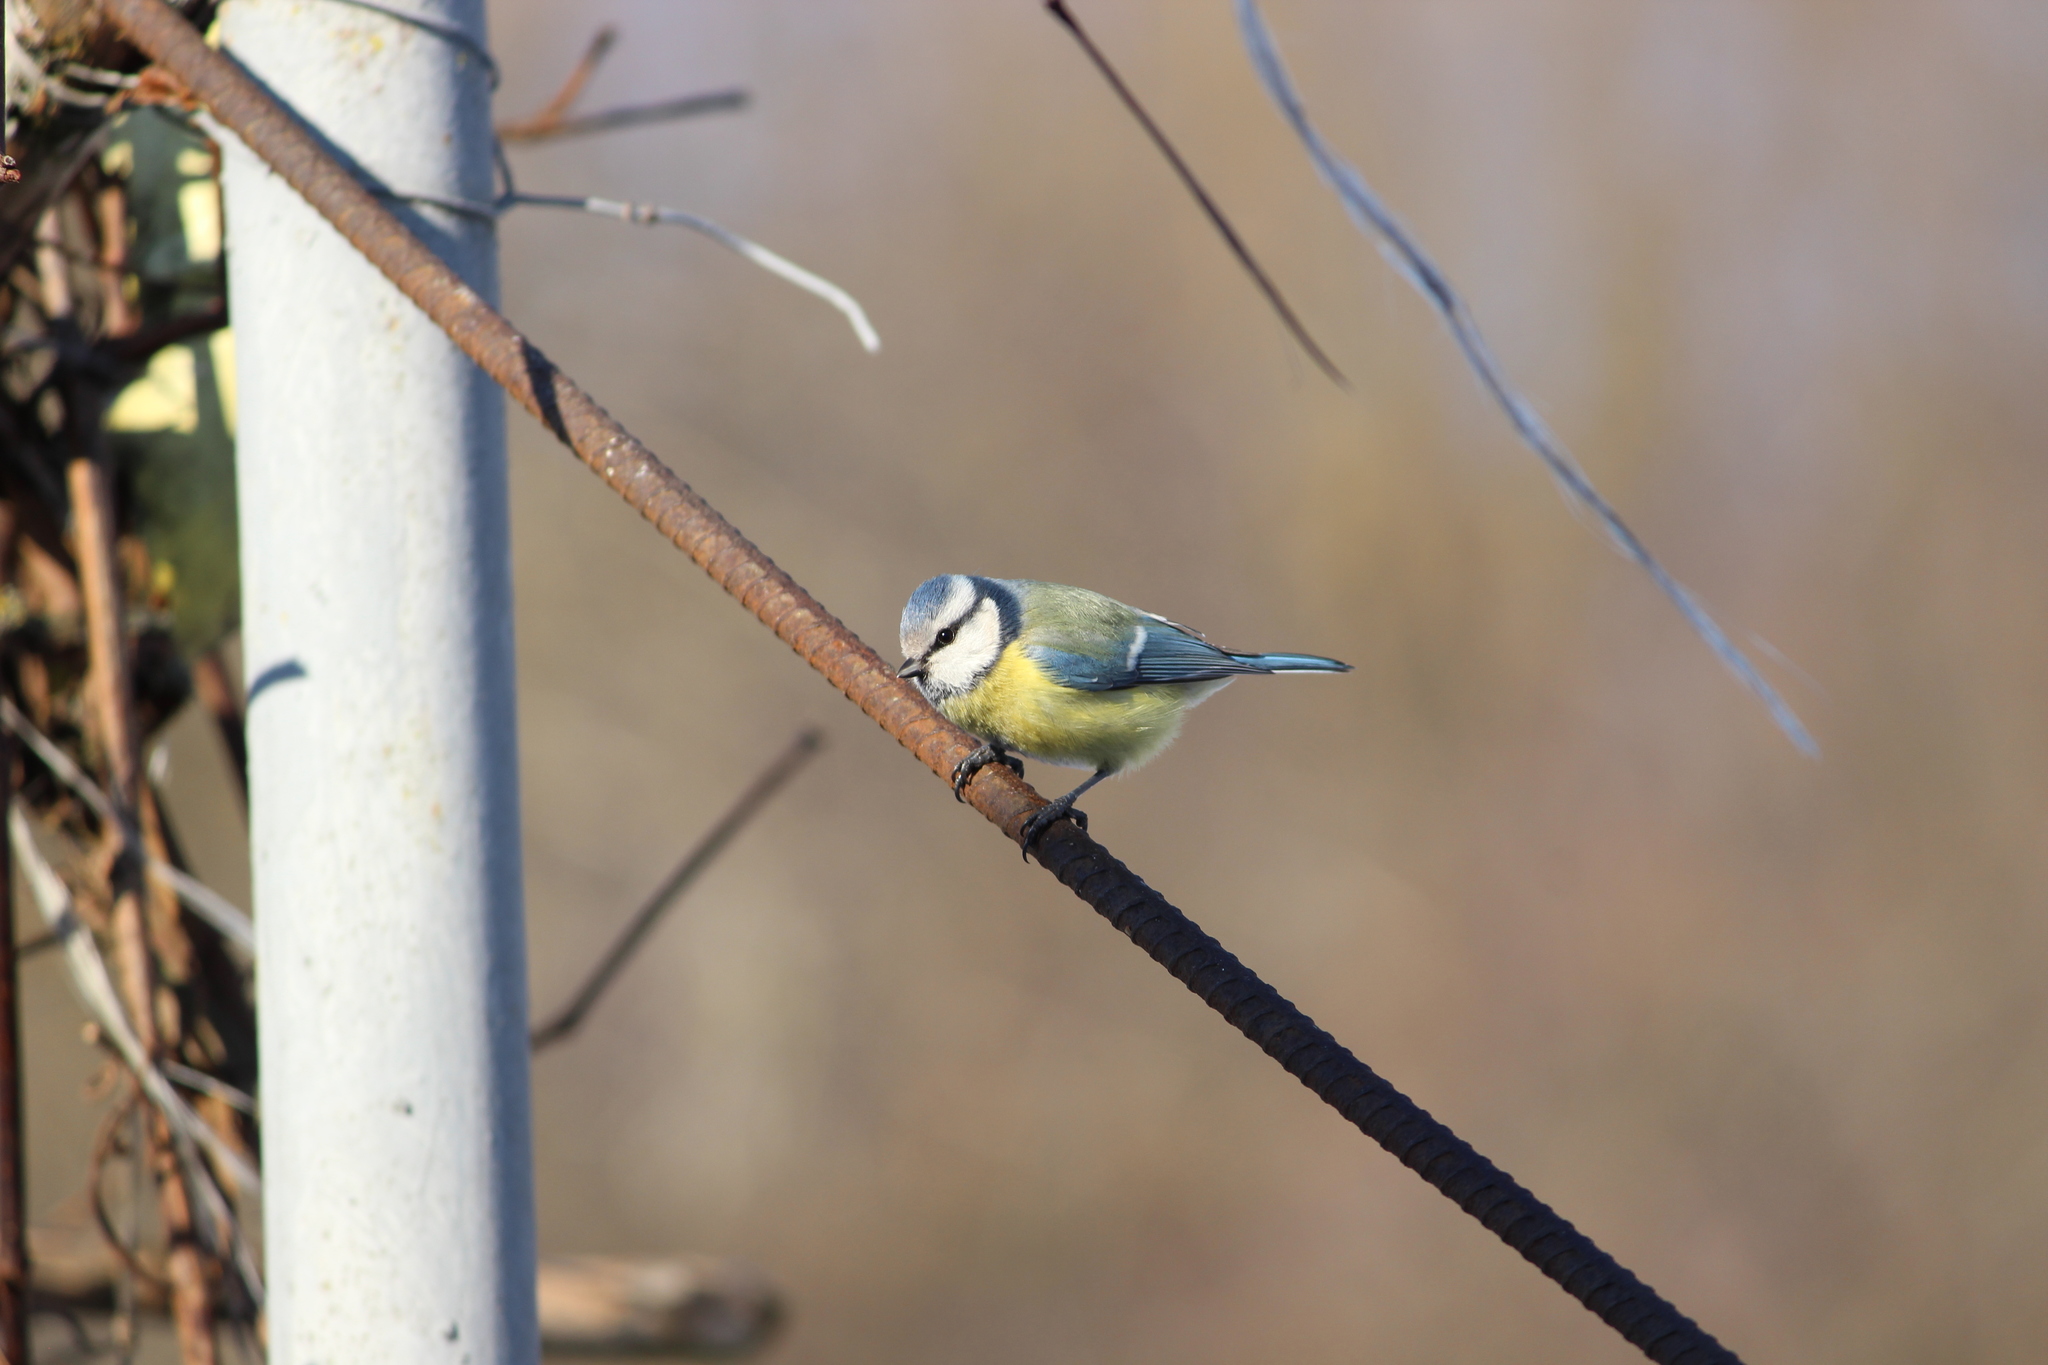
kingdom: Animalia
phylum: Chordata
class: Aves
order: Passeriformes
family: Paridae
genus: Cyanistes
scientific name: Cyanistes caeruleus
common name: Eurasian blue tit
